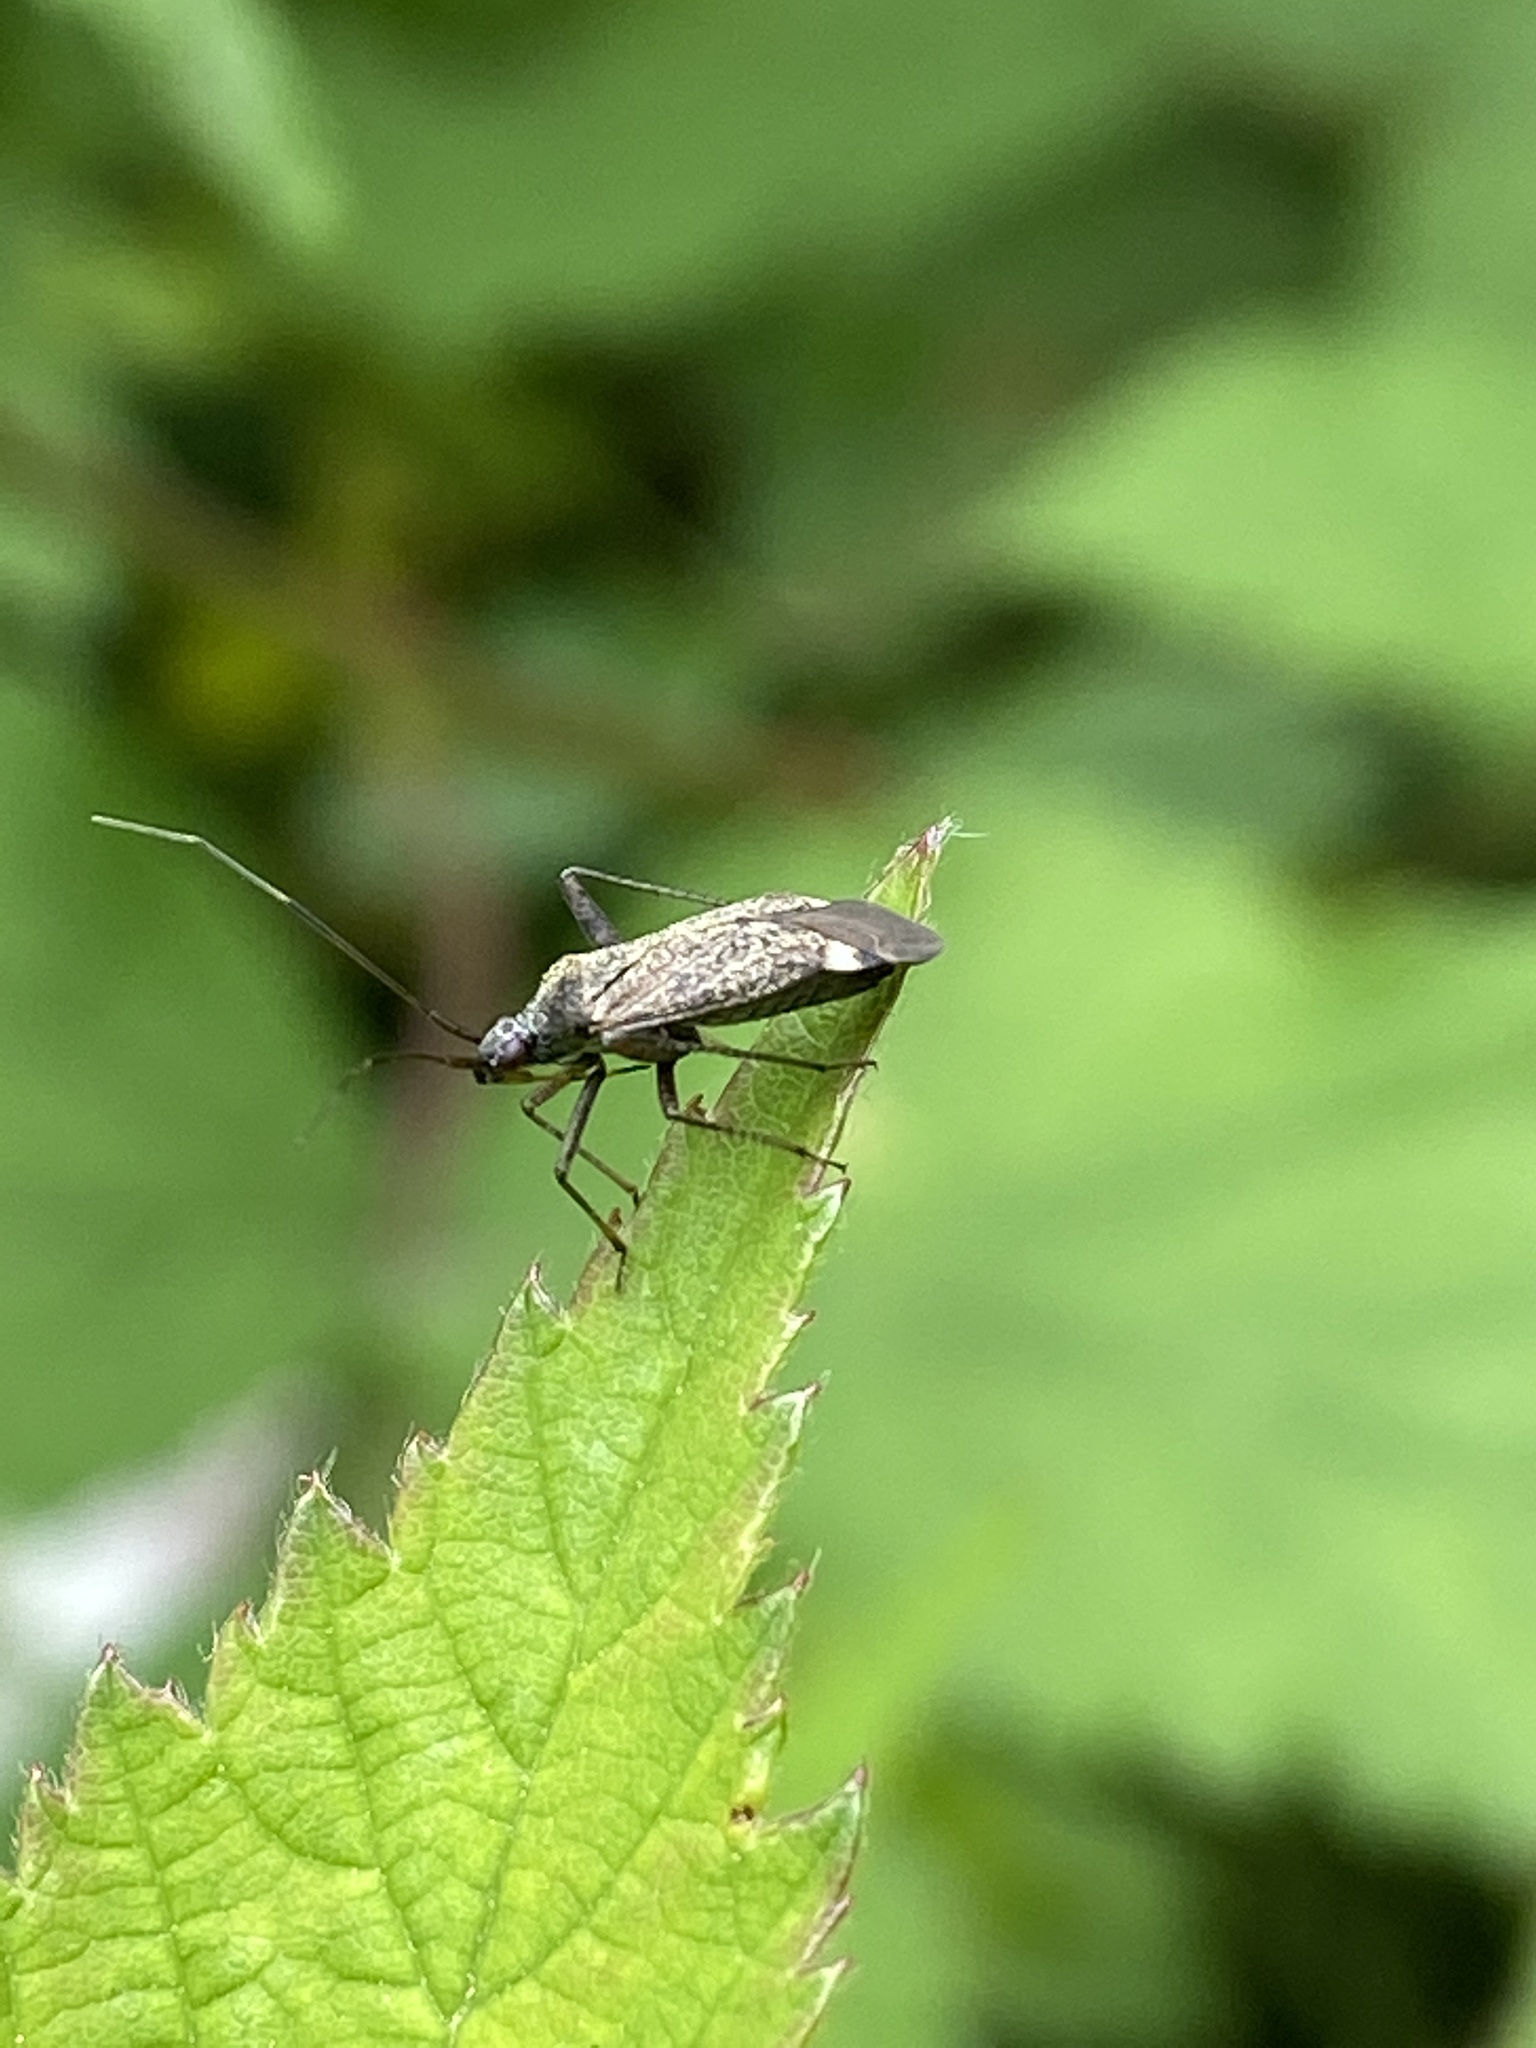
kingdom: Animalia
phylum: Arthropoda
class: Insecta
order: Hemiptera
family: Miridae
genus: Closterotomus
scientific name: Closterotomus fulvomaculatus
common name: Spotted plant bug
